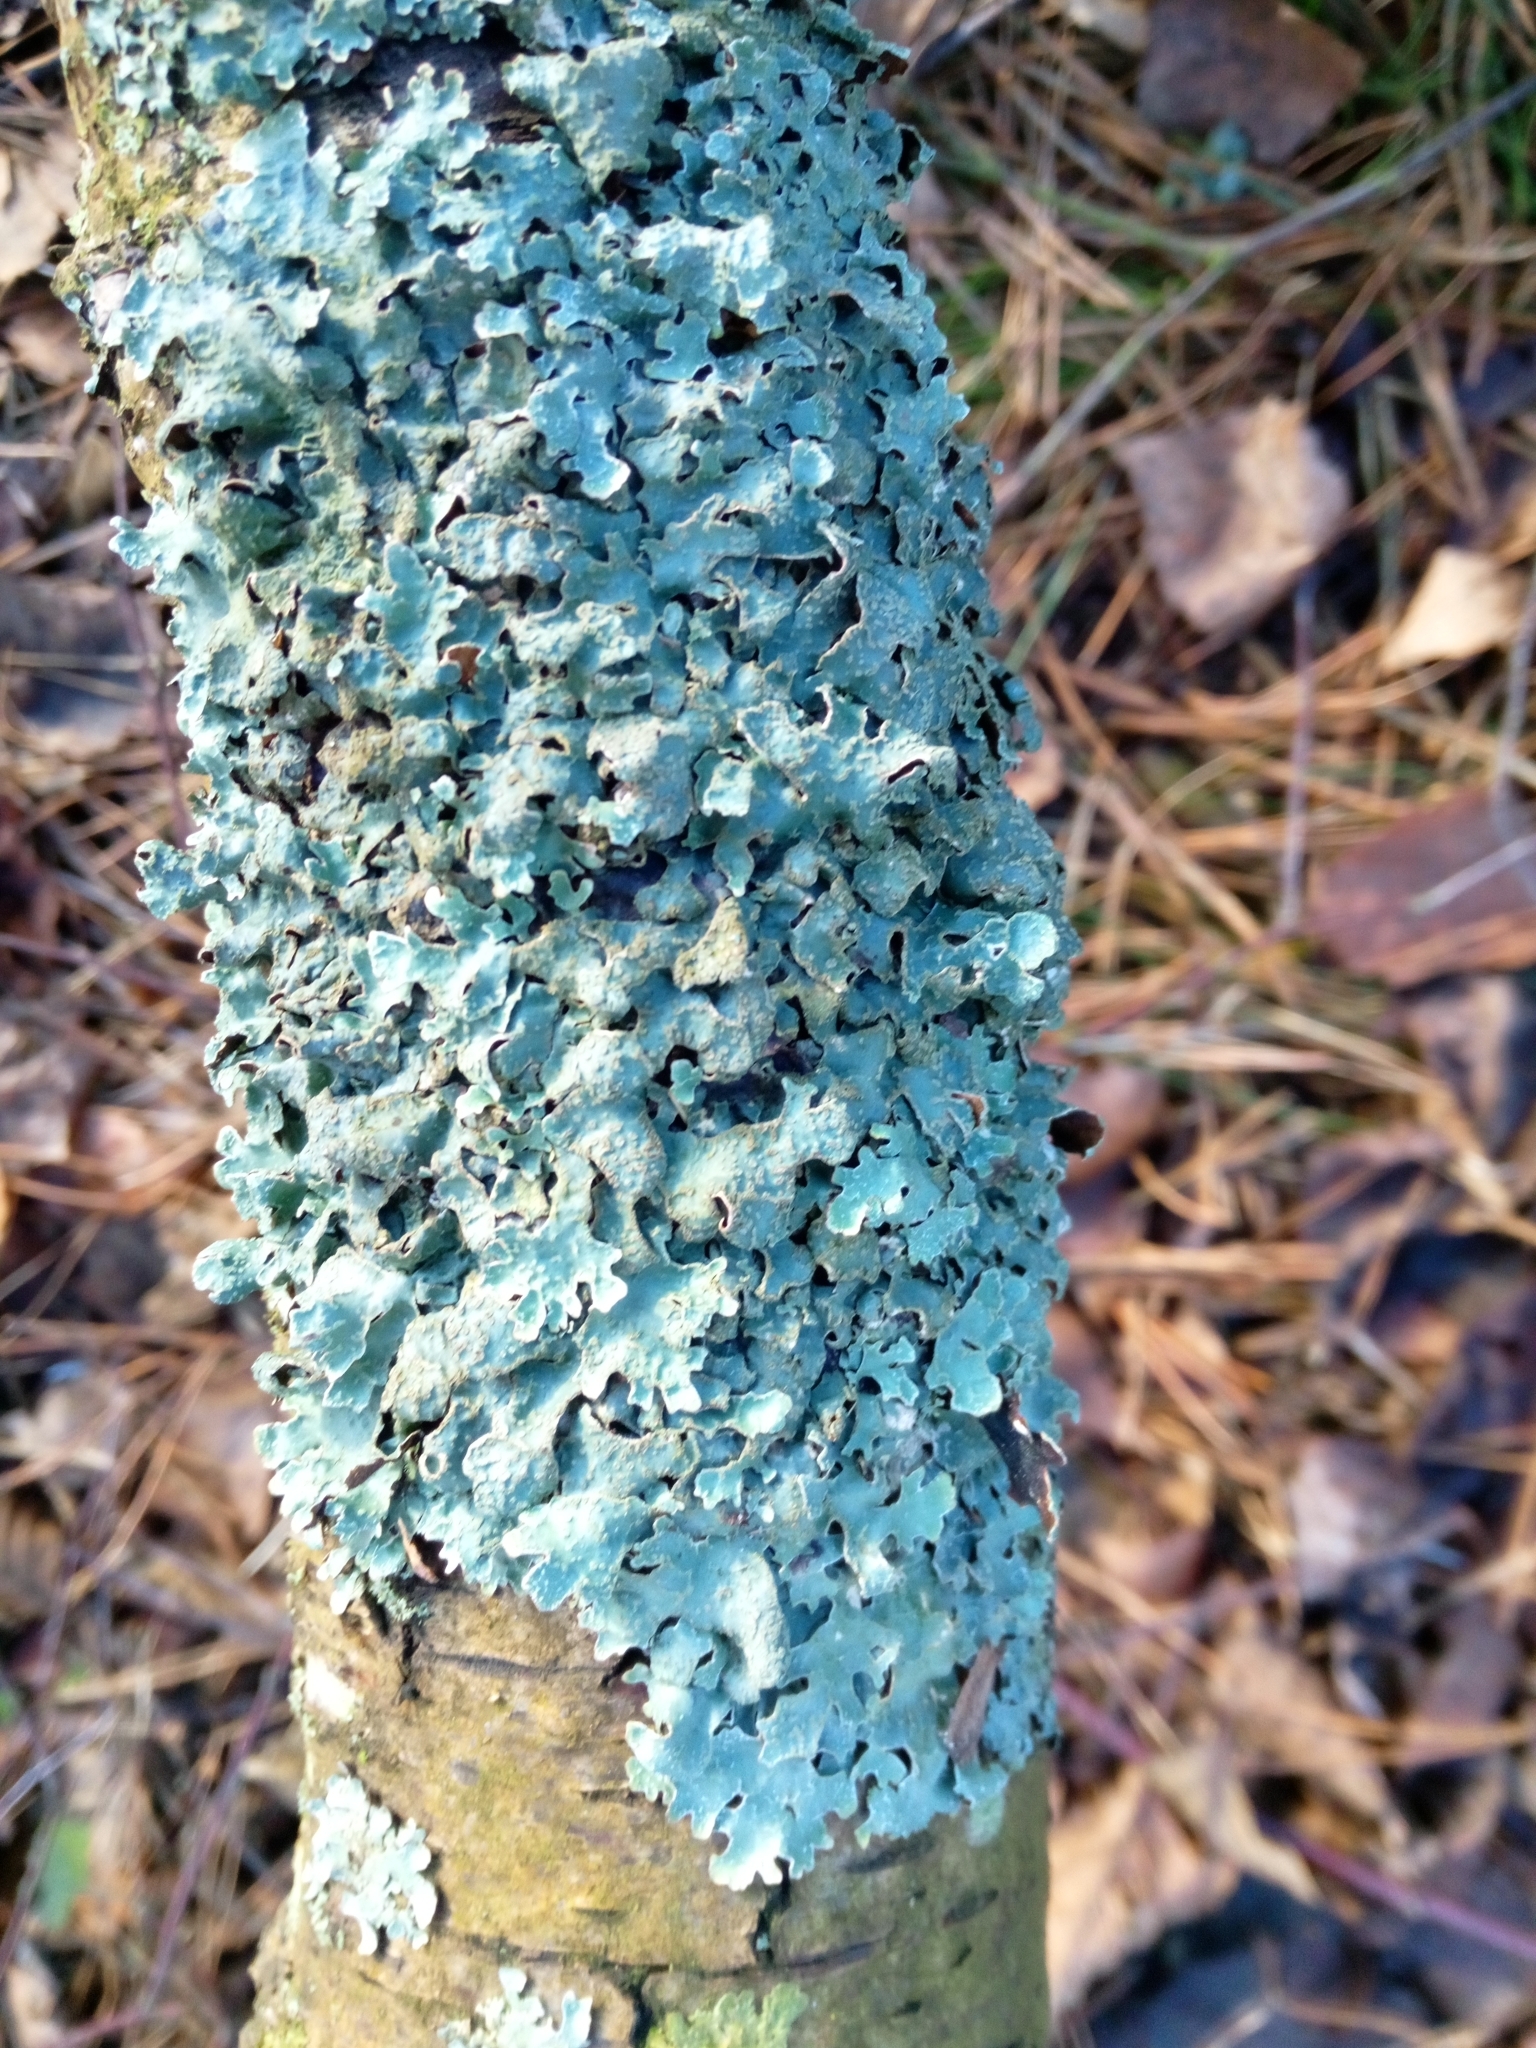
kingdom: Fungi
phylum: Ascomycota
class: Lecanoromycetes
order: Lecanorales
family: Parmeliaceae
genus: Parmelia
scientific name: Parmelia sulcata
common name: Netted shield lichen
